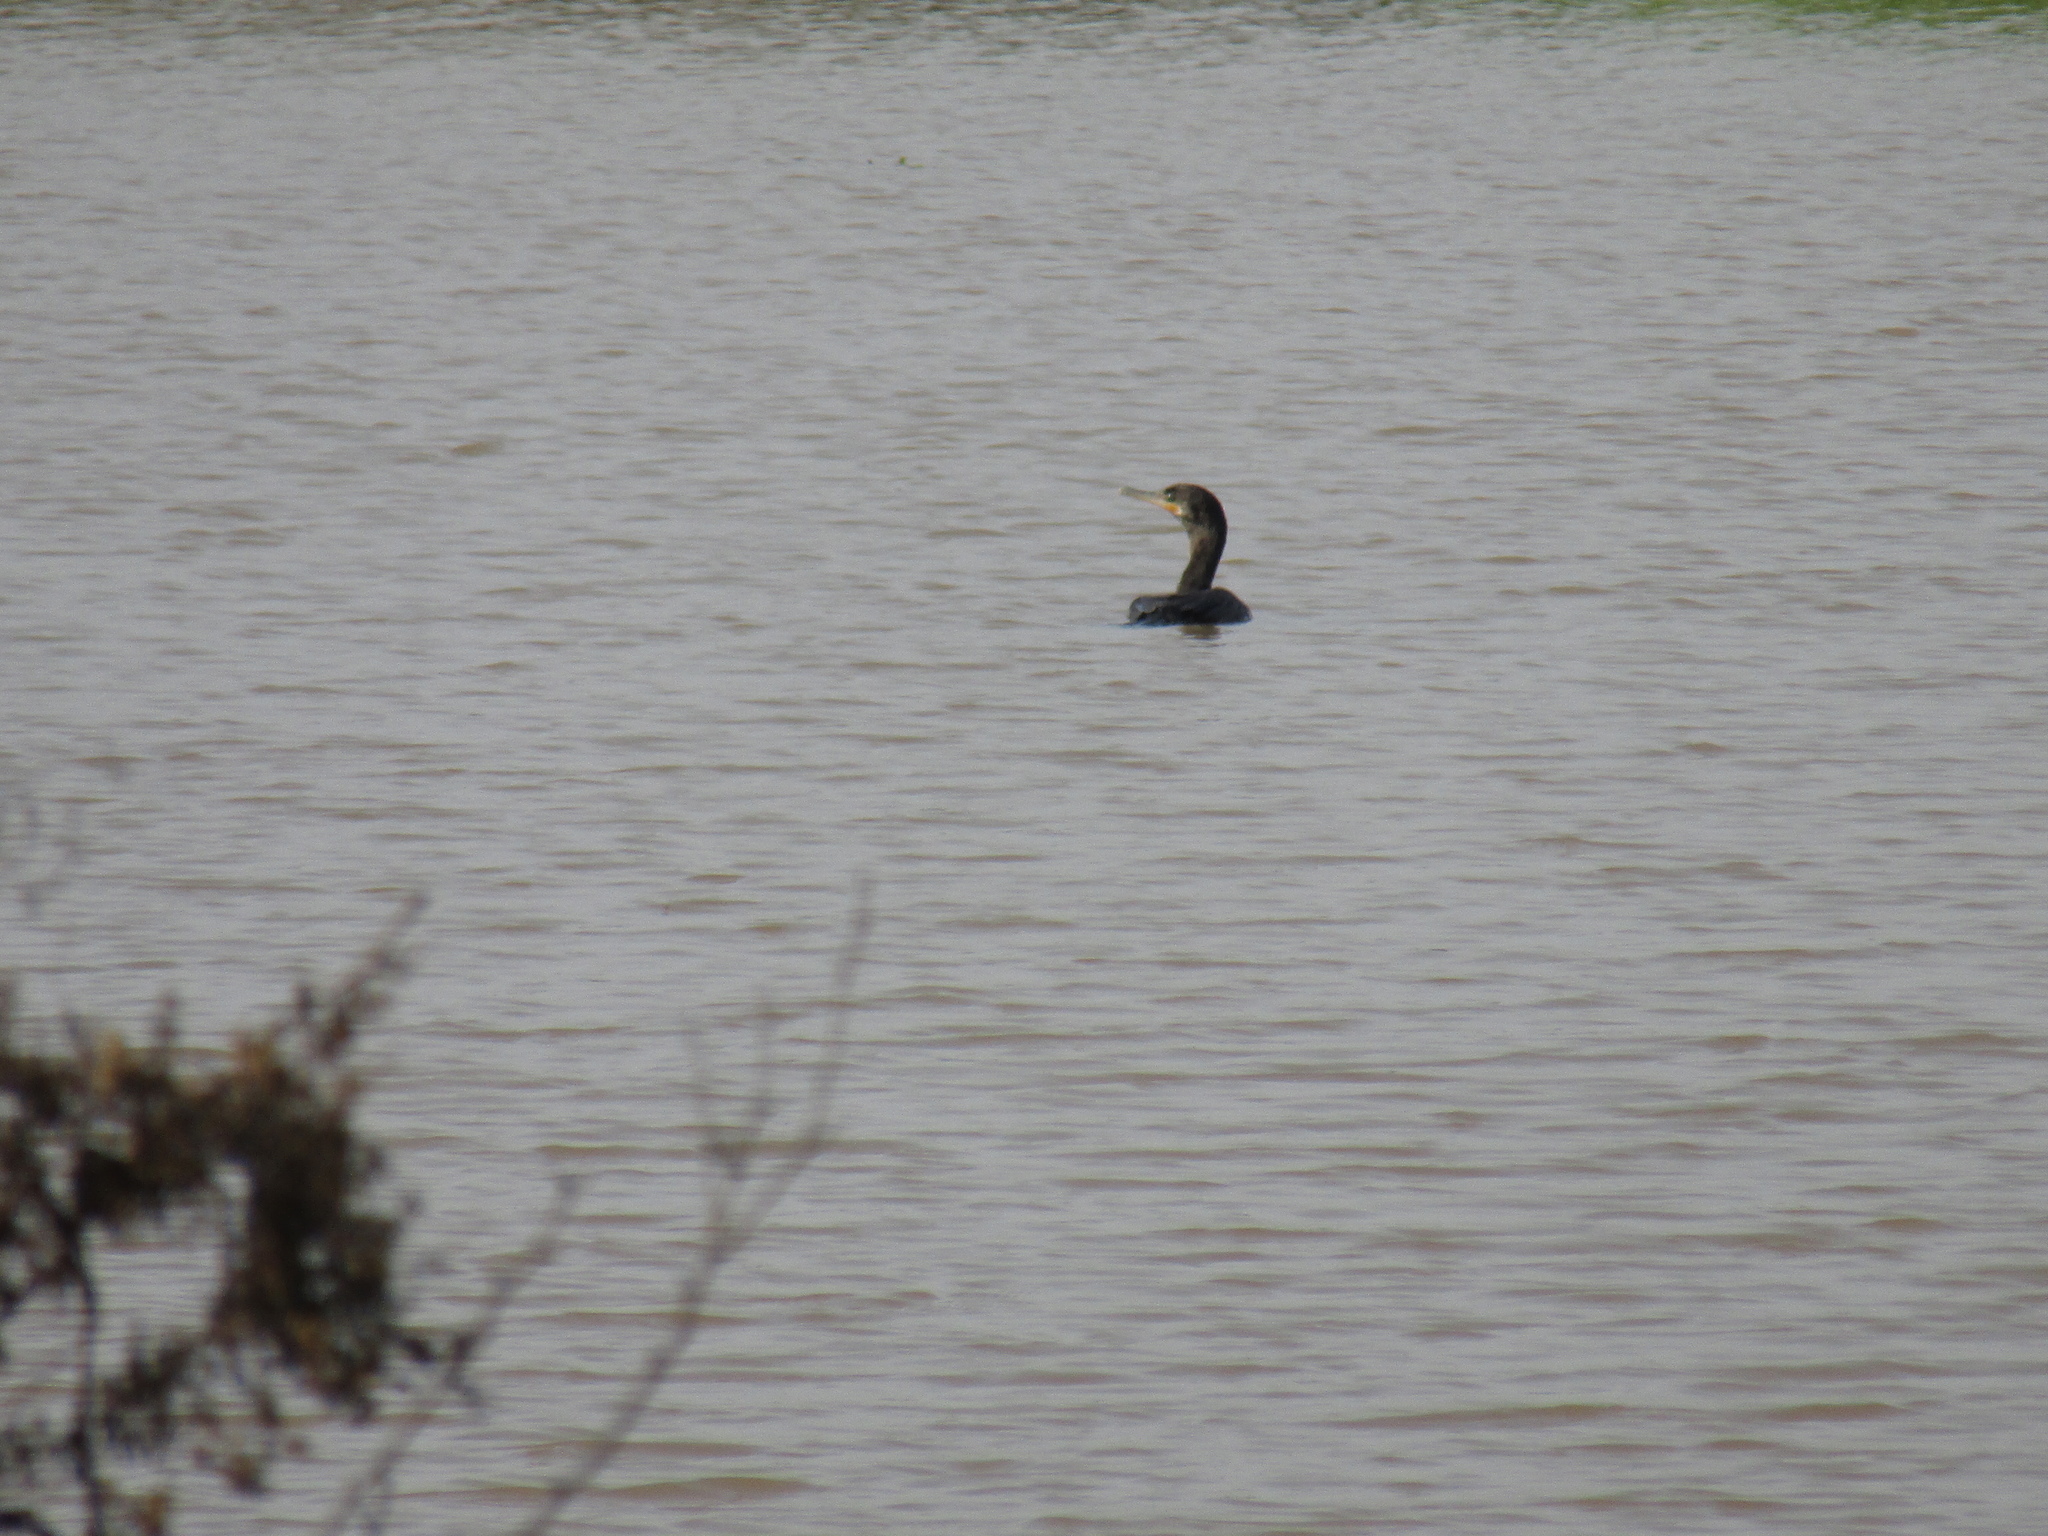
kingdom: Animalia
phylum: Chordata
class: Aves
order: Suliformes
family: Phalacrocoracidae
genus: Phalacrocorax
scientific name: Phalacrocorax brasilianus
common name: Neotropic cormorant
